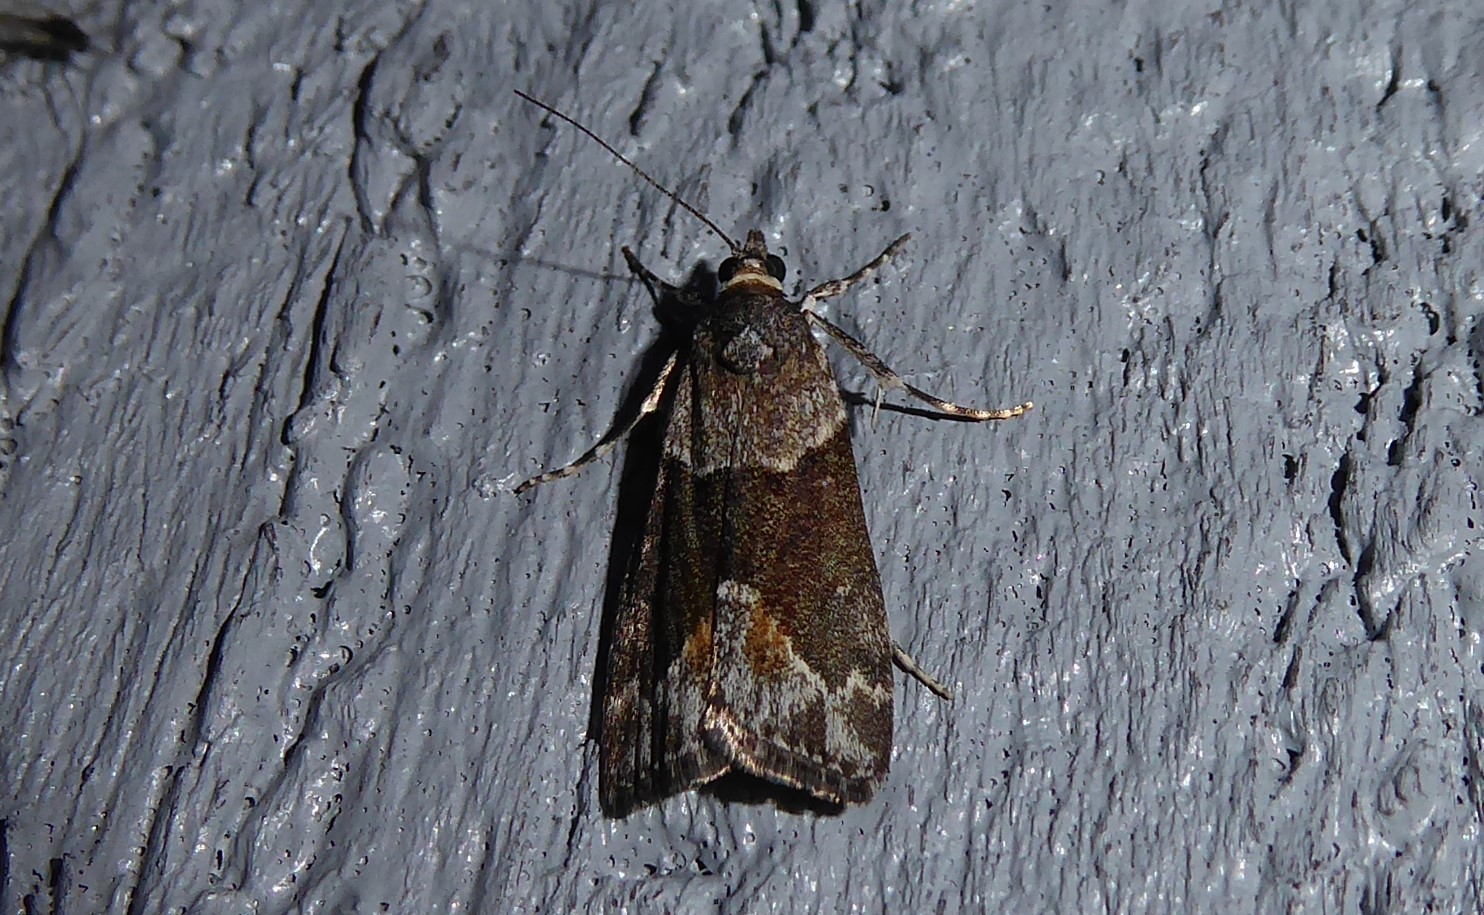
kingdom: Animalia
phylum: Arthropoda
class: Insecta
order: Lepidoptera
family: Crambidae
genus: Eudonia
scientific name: Eudonia submarginalis
